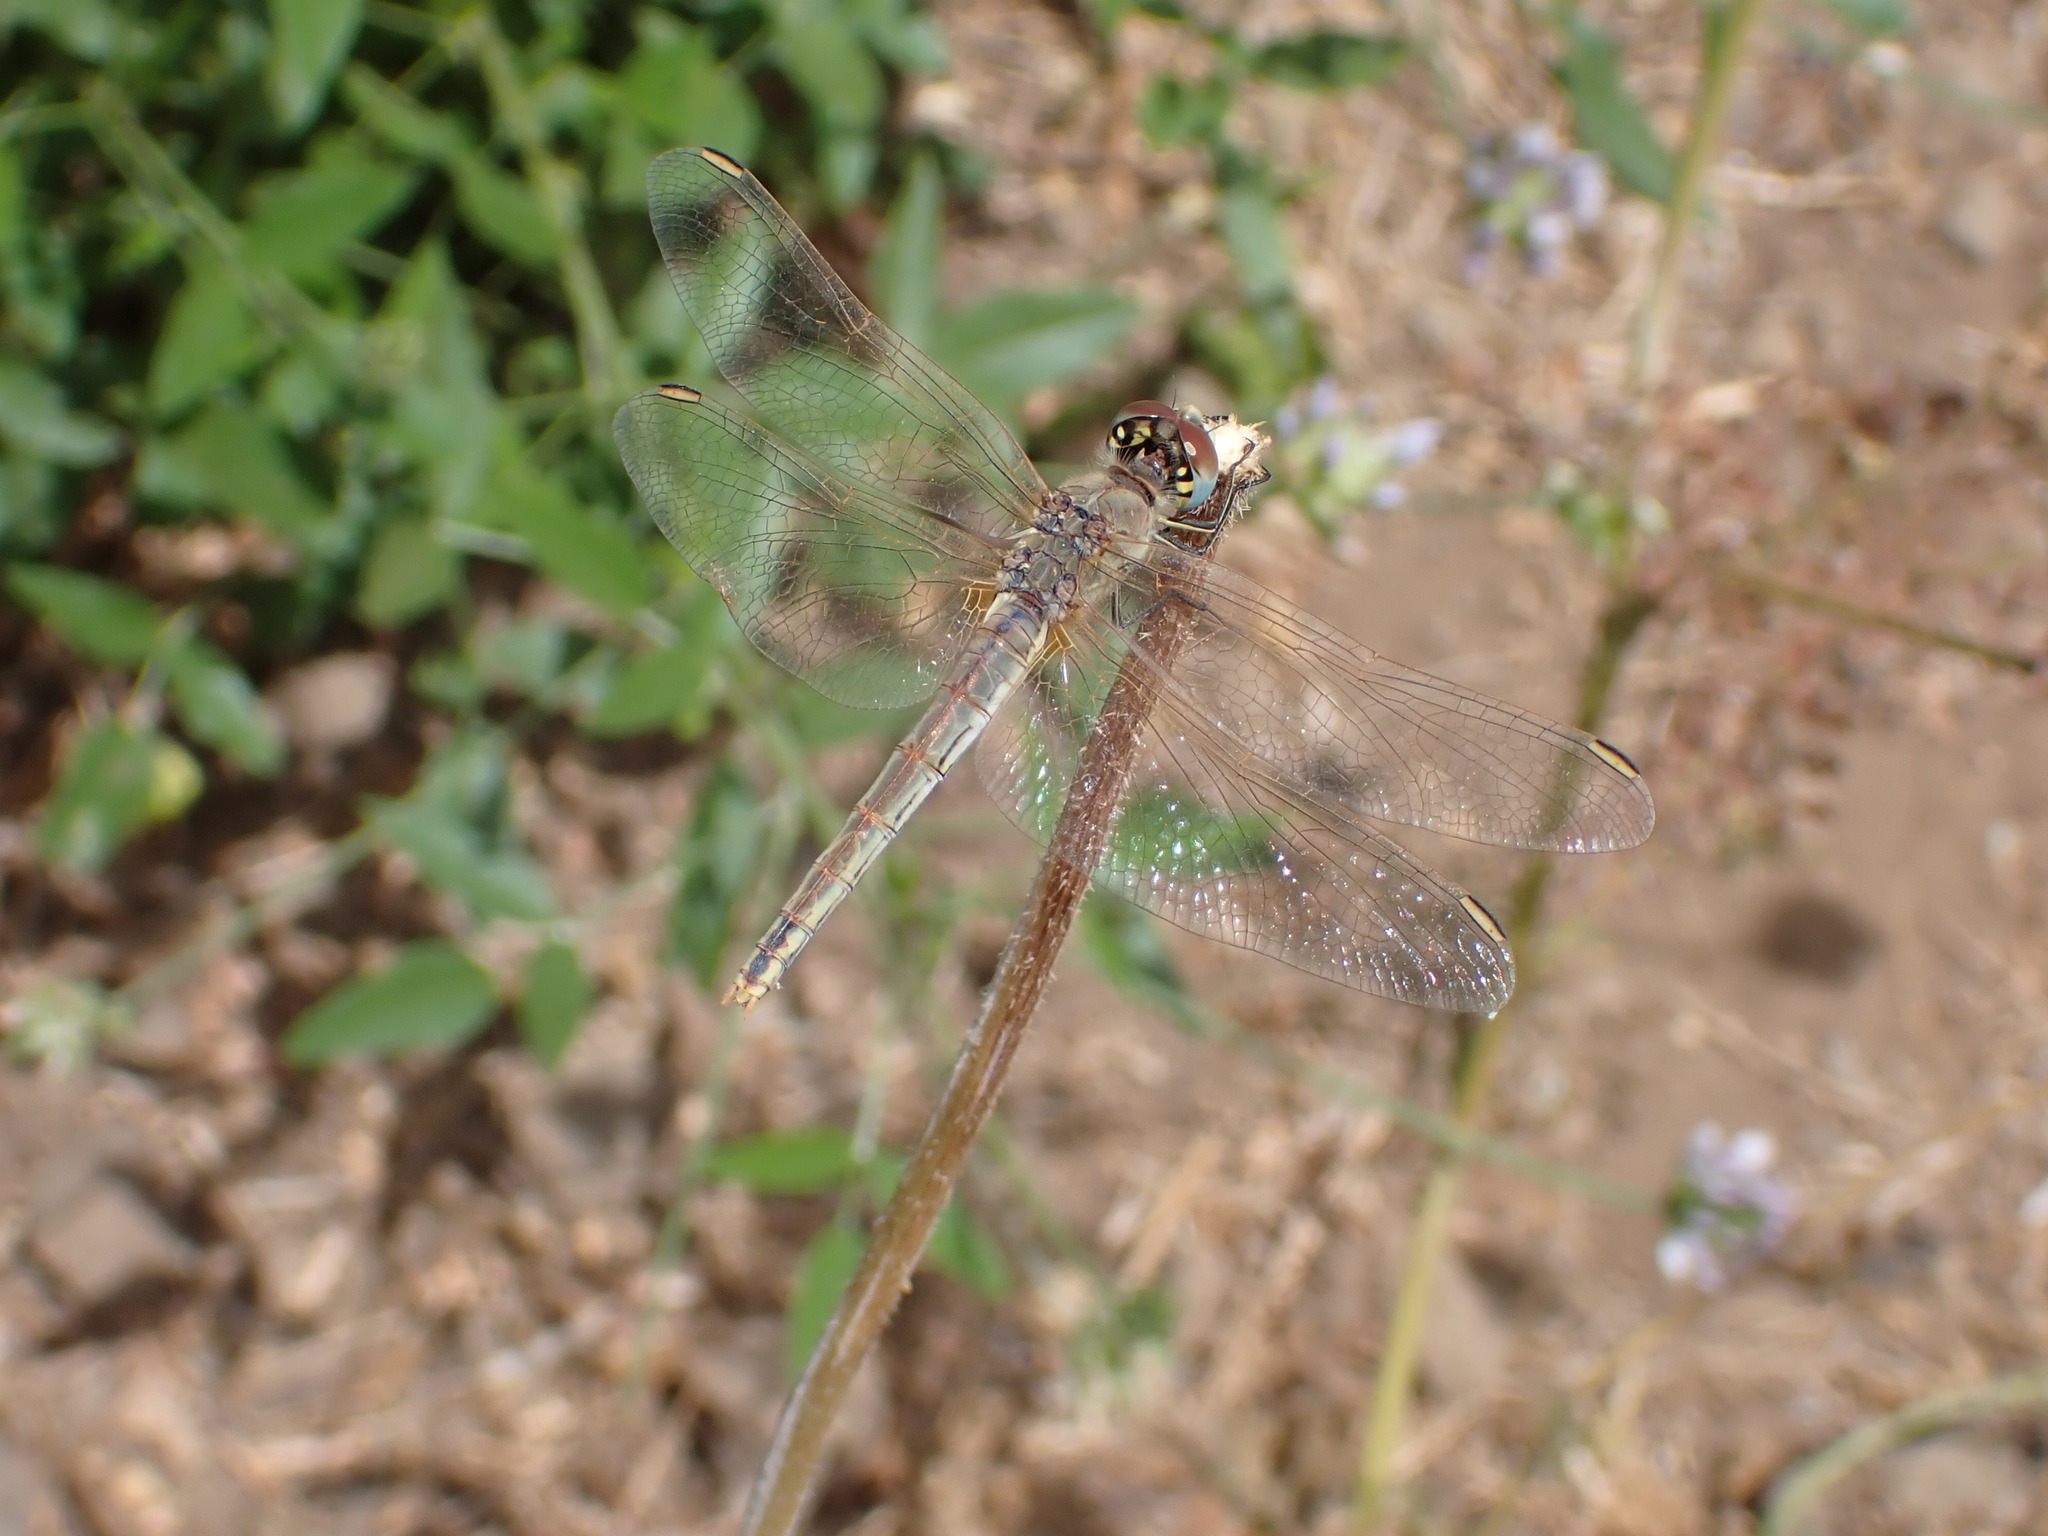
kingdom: Animalia
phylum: Arthropoda
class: Insecta
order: Odonata
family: Libellulidae
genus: Sympetrum
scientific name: Sympetrum fonscolombii
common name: Red-veined darter
